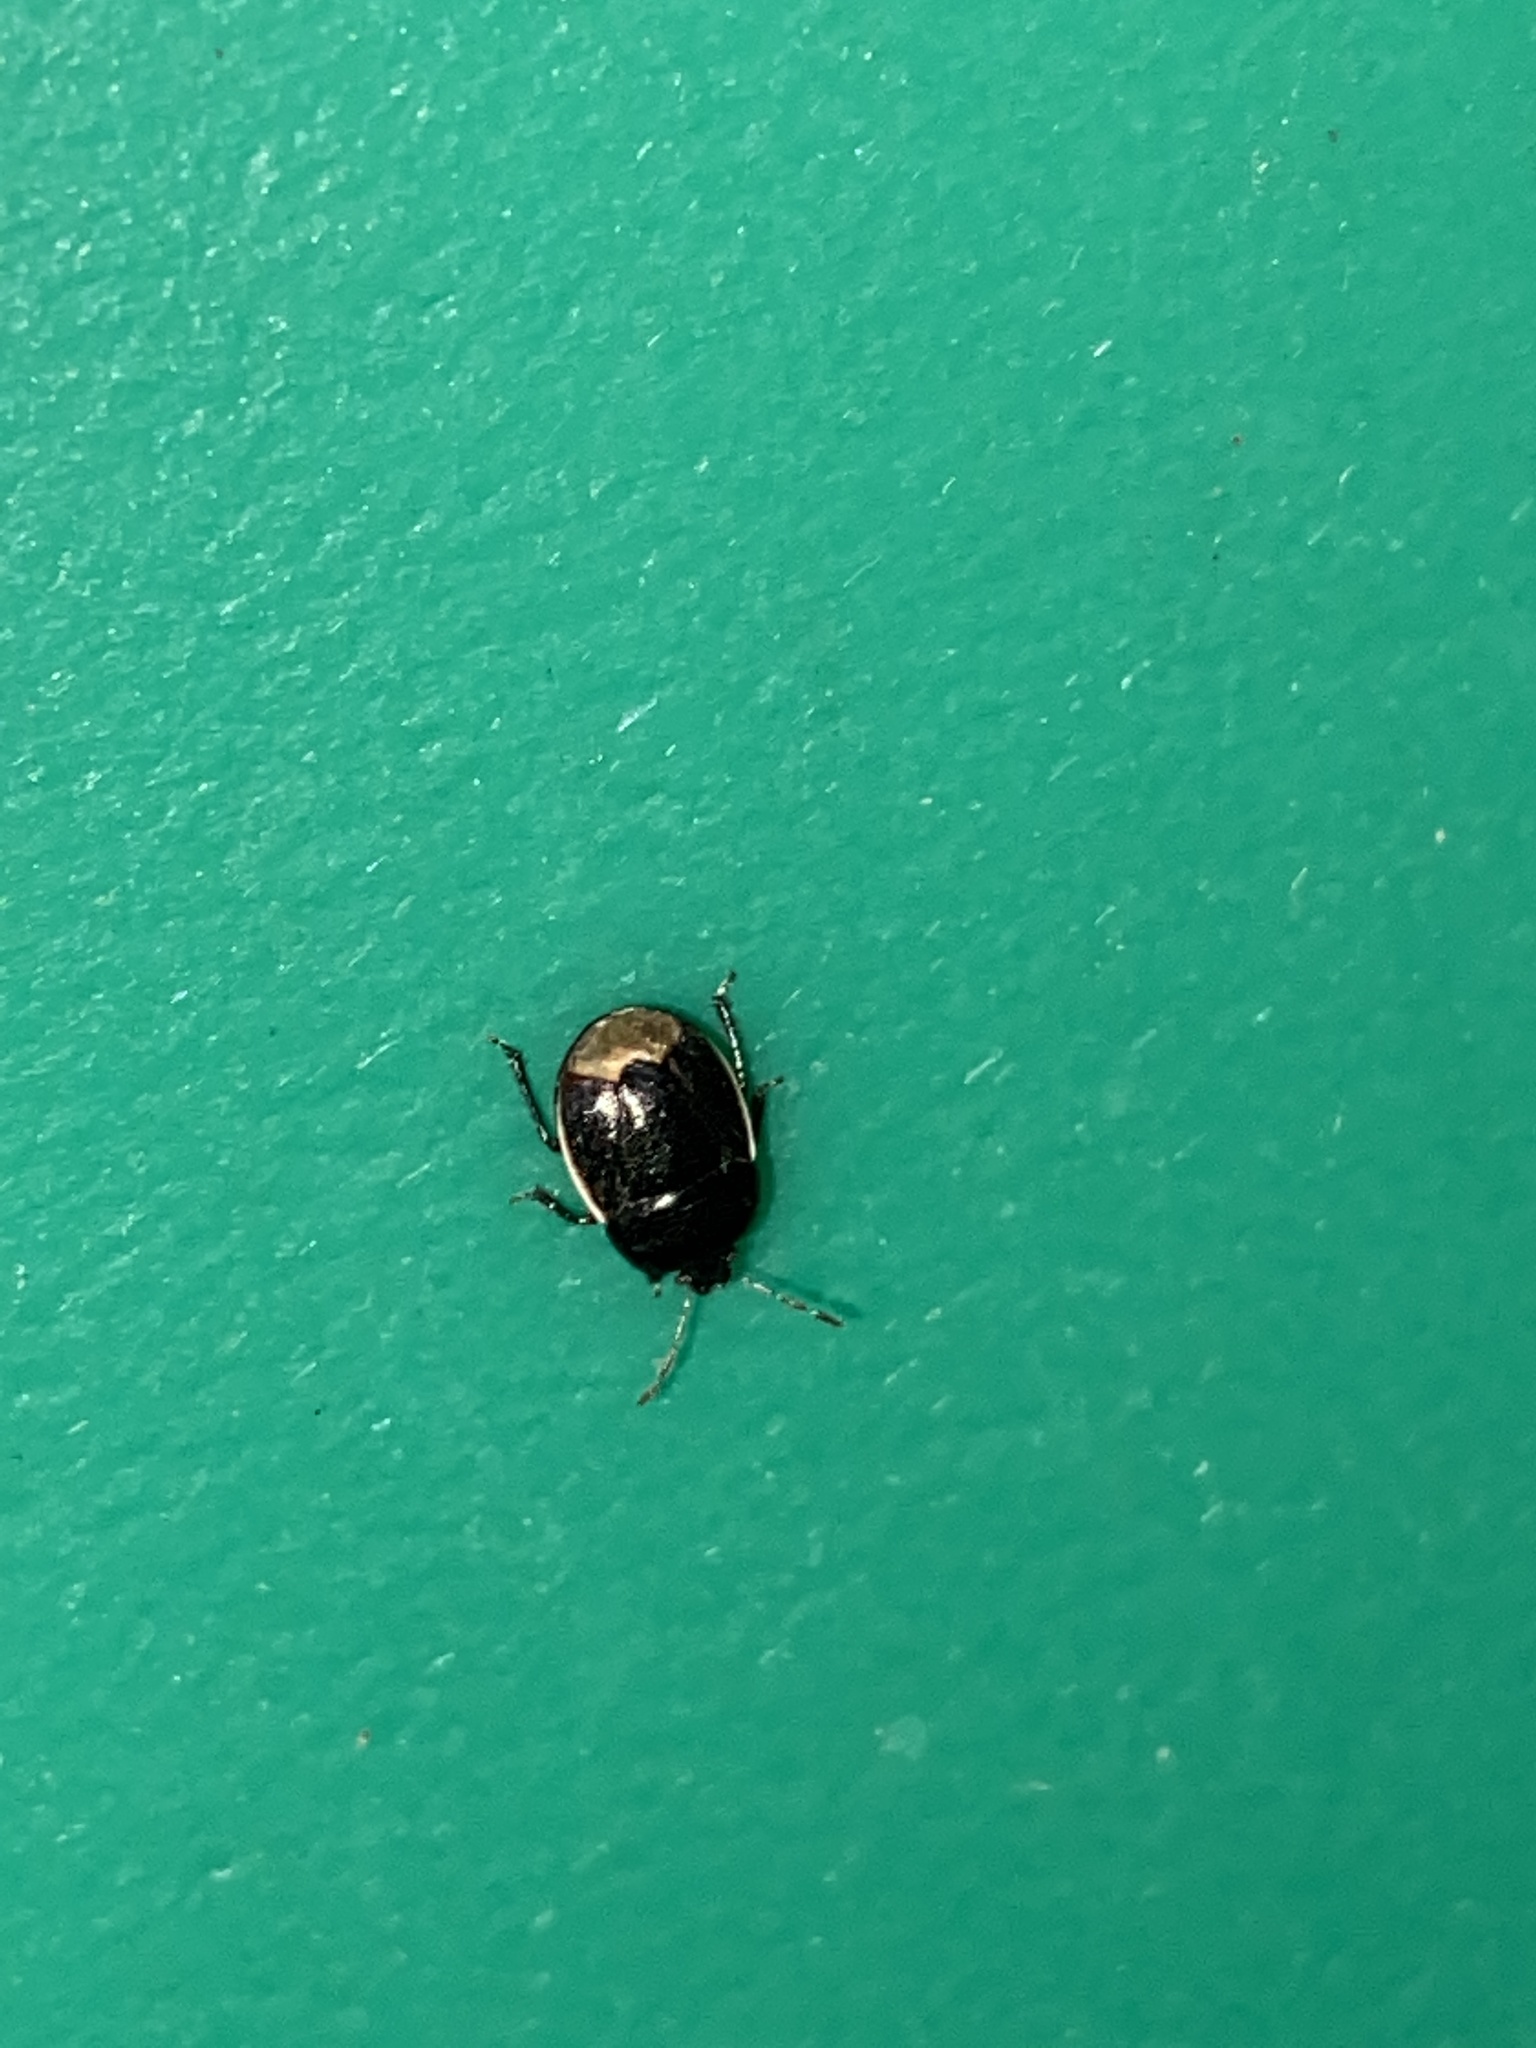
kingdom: Animalia
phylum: Arthropoda
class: Insecta
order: Hemiptera
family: Cydnidae
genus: Legnotus
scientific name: Legnotus limbosus
